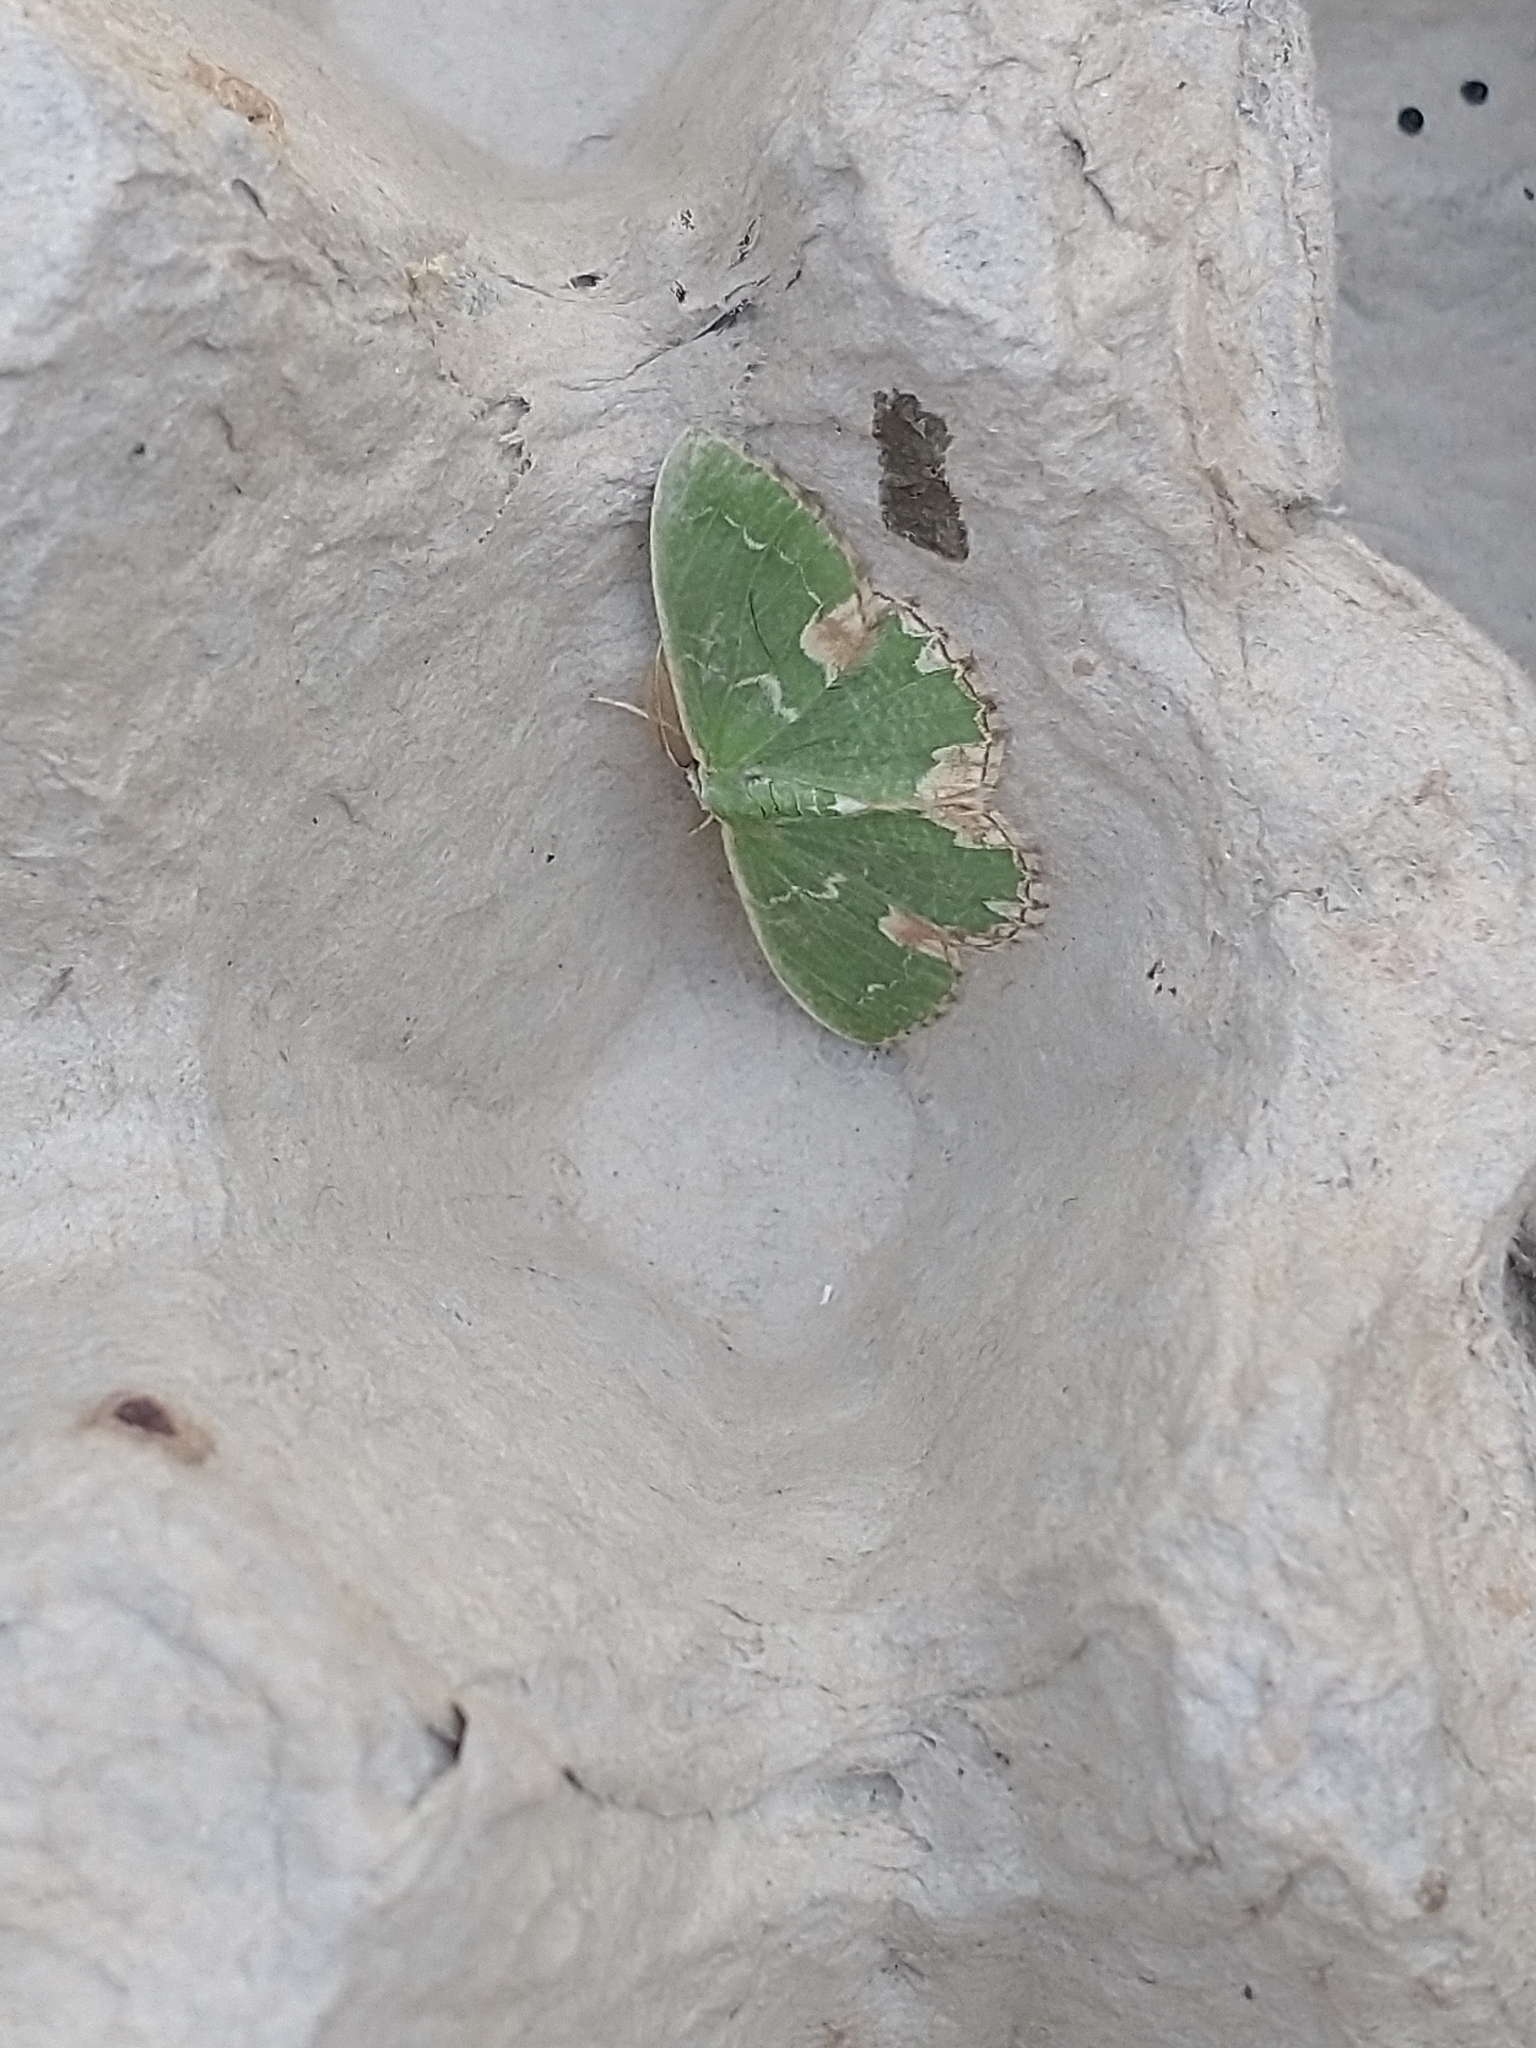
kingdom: Animalia
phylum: Arthropoda
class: Insecta
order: Lepidoptera
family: Geometridae
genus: Comibaena
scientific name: Comibaena bajularia
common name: Blotched emerald
